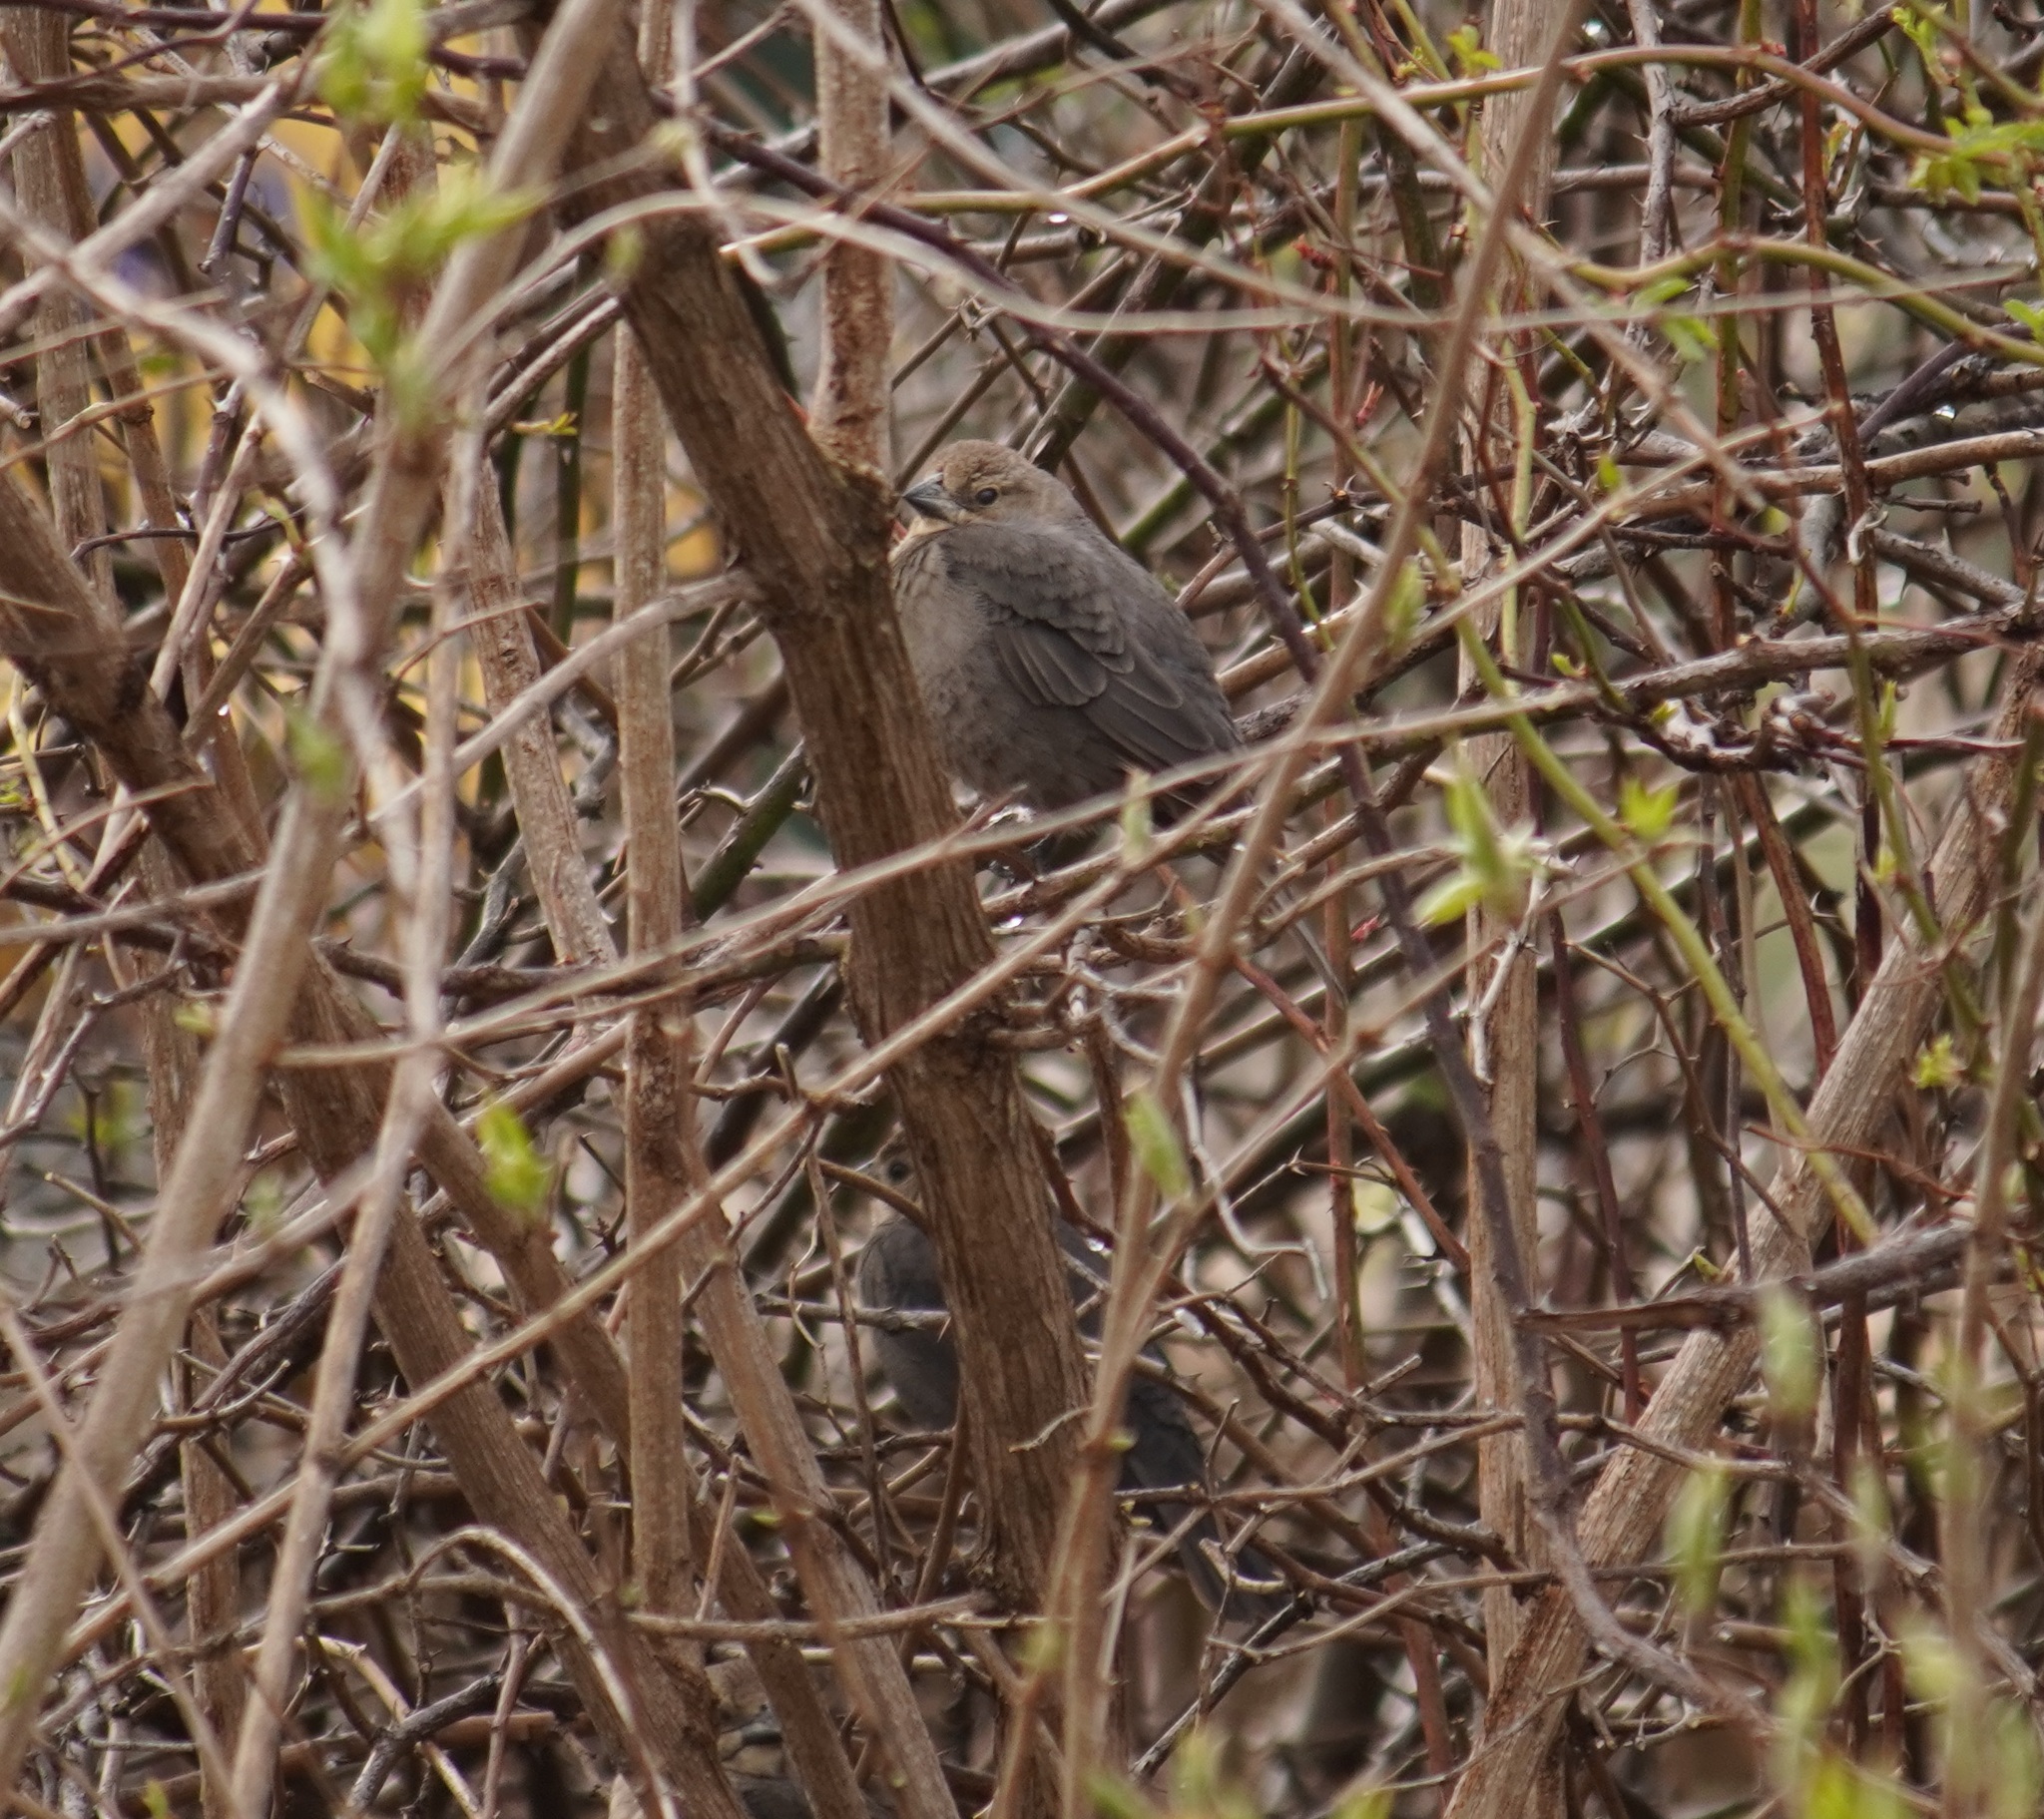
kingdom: Animalia
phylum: Chordata
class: Aves
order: Passeriformes
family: Icteridae
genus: Molothrus
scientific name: Molothrus ater
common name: Brown-headed cowbird
